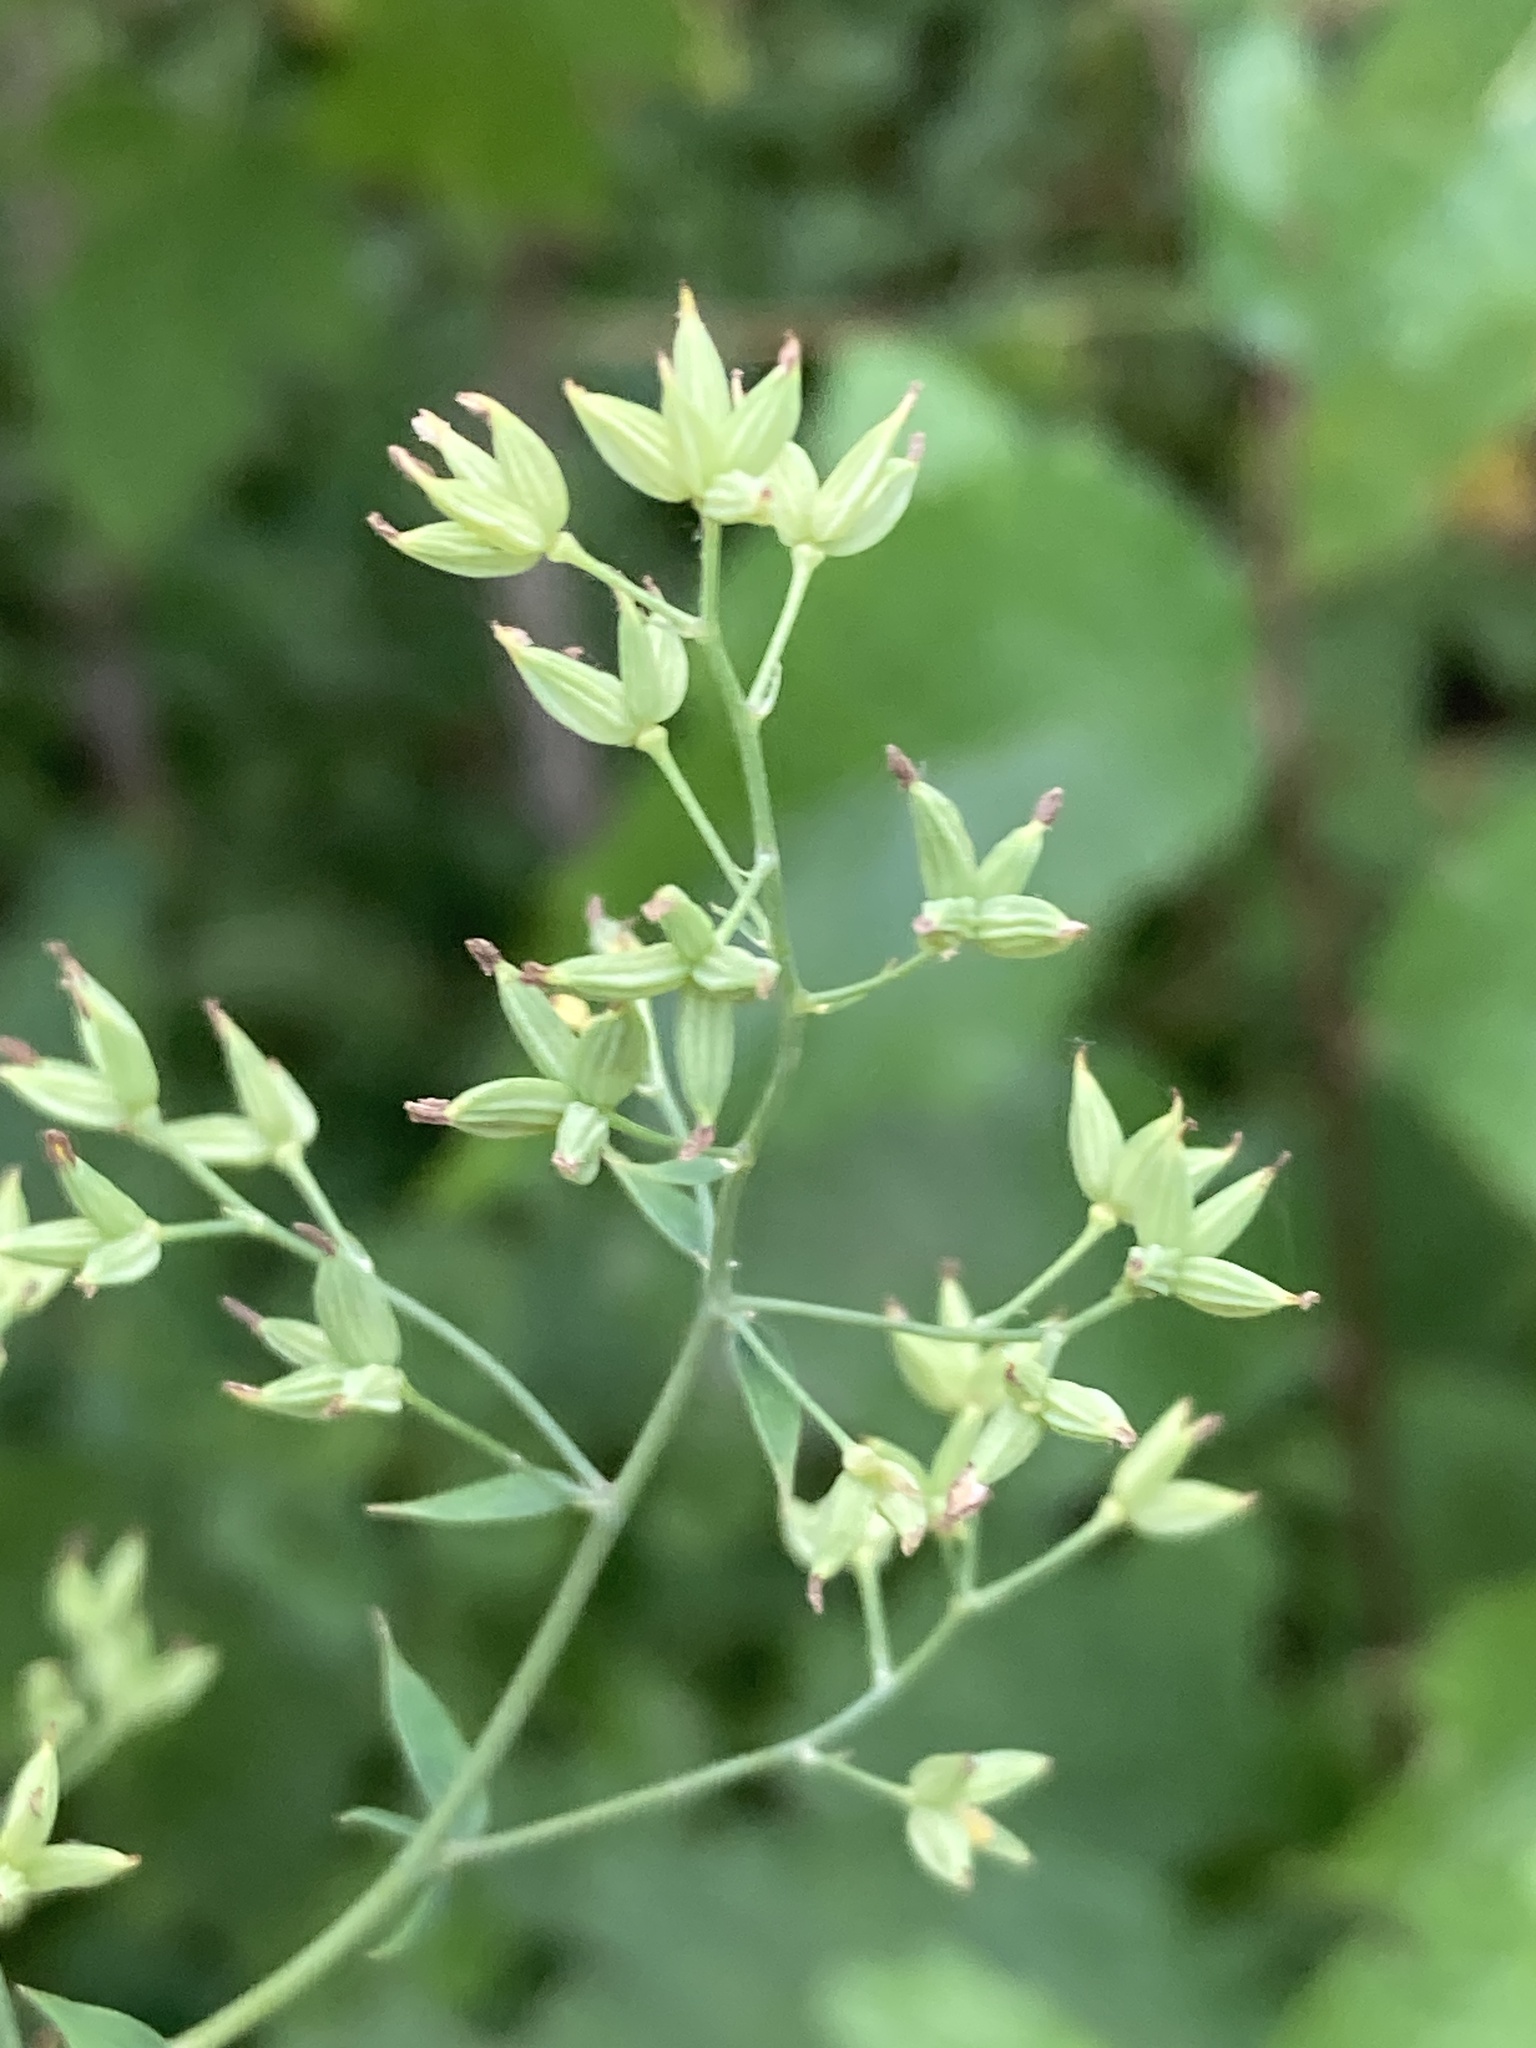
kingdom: Plantae
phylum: Tracheophyta
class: Magnoliopsida
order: Ranunculales
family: Ranunculaceae
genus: Thalictrum
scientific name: Thalictrum minus
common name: Lesser meadow-rue
